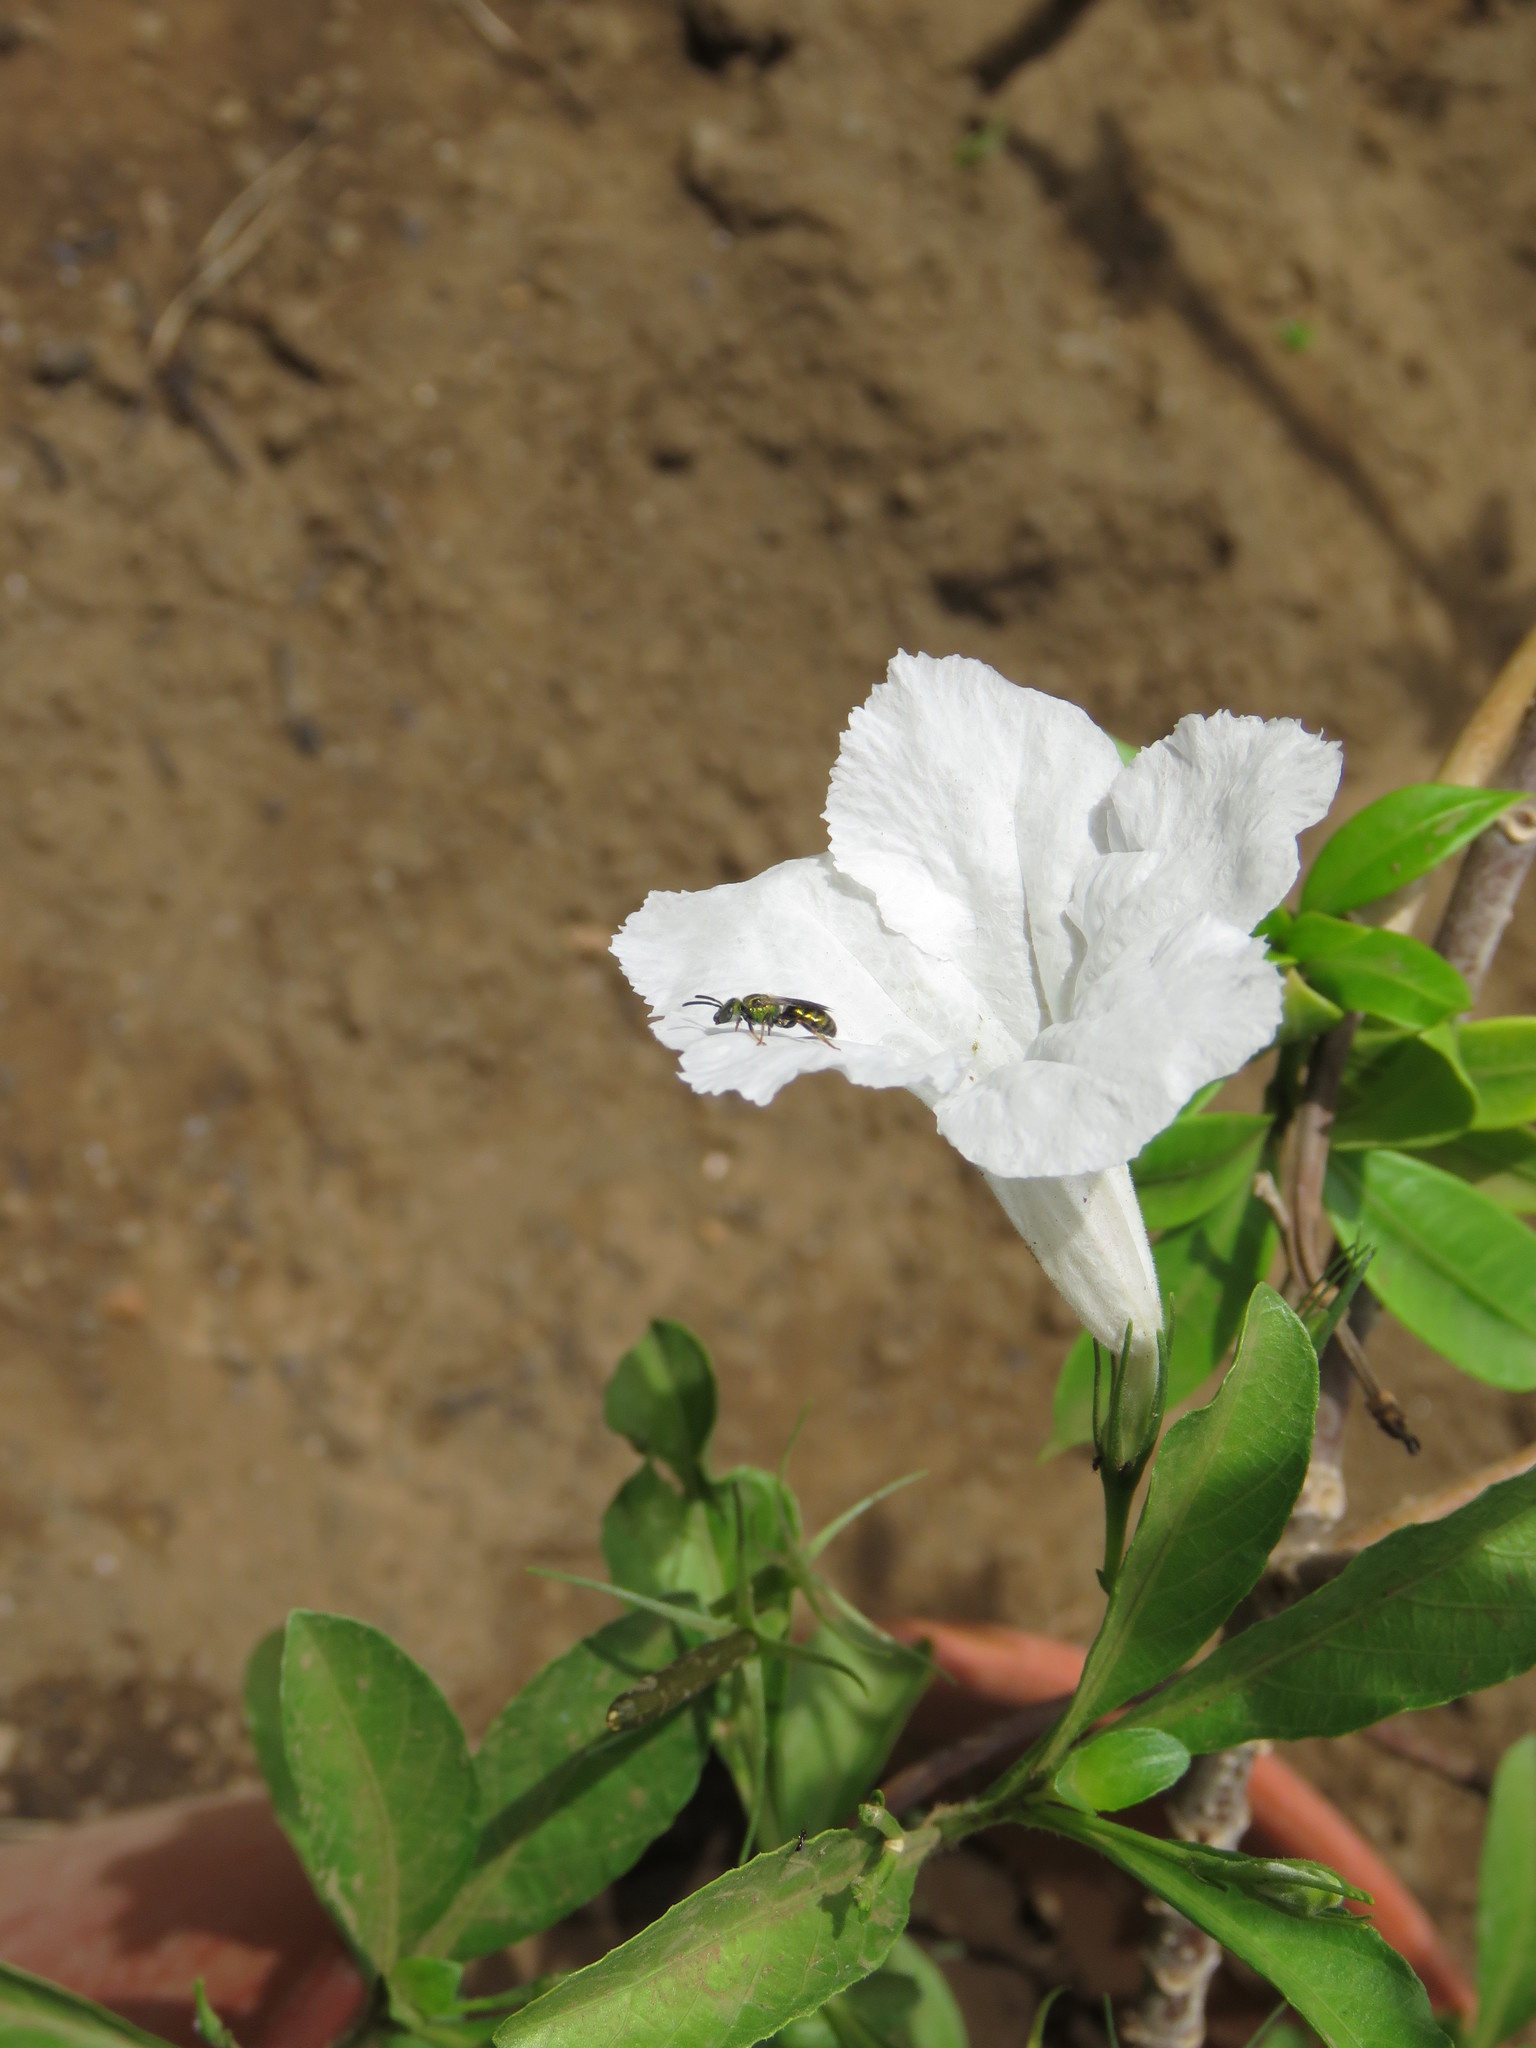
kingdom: Plantae
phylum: Tracheophyta
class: Magnoliopsida
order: Lamiales
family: Acanthaceae
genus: Ruellia
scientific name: Ruellia tuberosa
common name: Devil's bit
